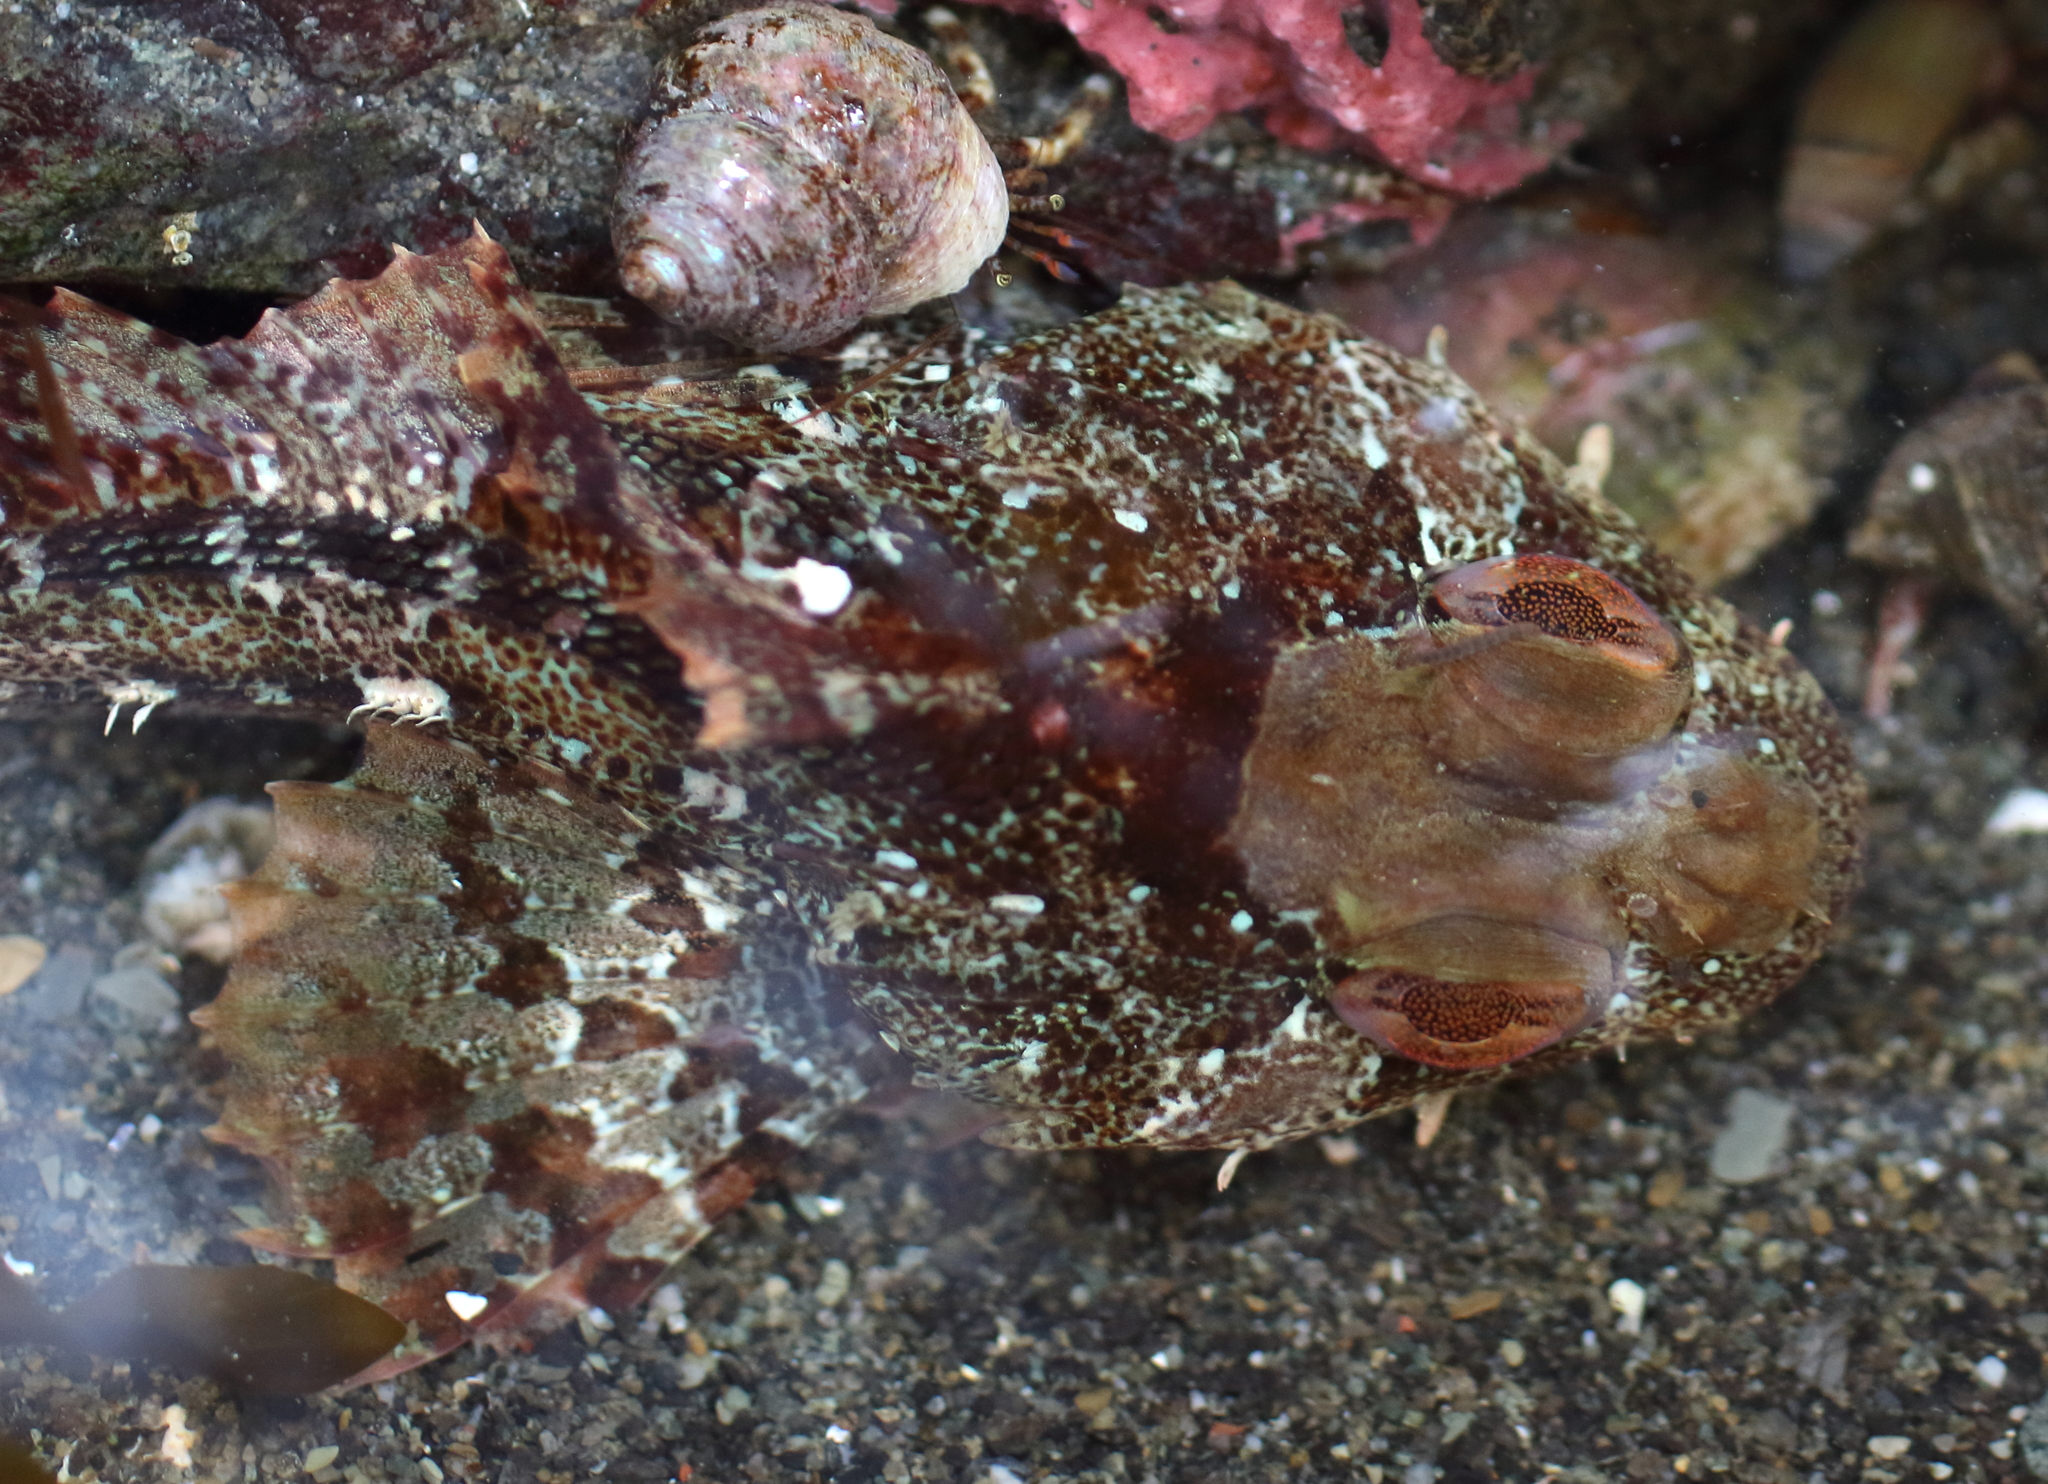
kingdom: Animalia
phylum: Chordata
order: Scorpaeniformes
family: Cottidae
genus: Hemilepidotus
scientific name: Hemilepidotus hemilepidotus
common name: Red irish lord
